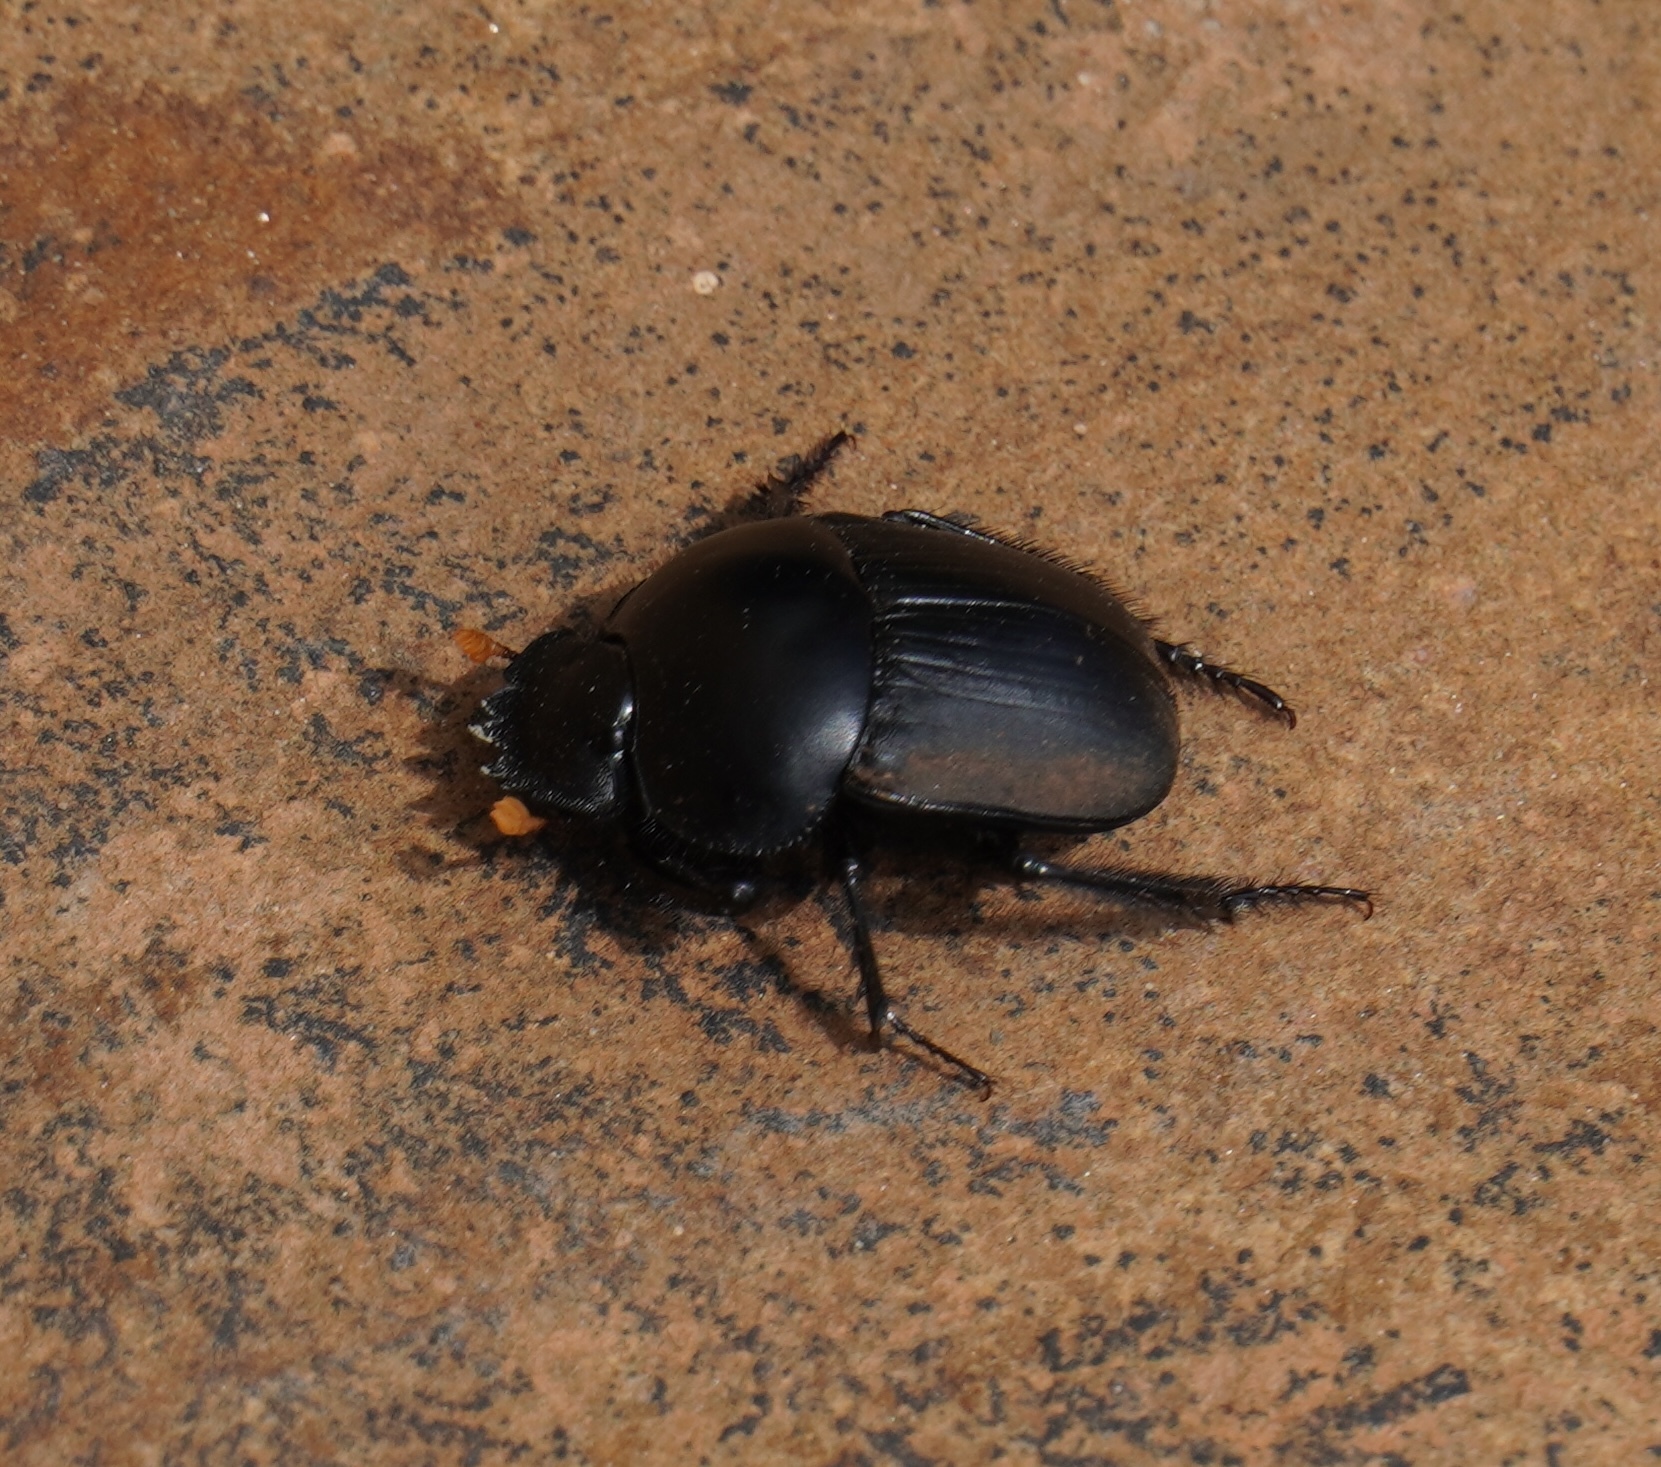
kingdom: Animalia
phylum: Arthropoda
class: Insecta
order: Coleoptera
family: Scarabaeidae
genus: Scarabaeus
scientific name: Scarabaeus rusticus
